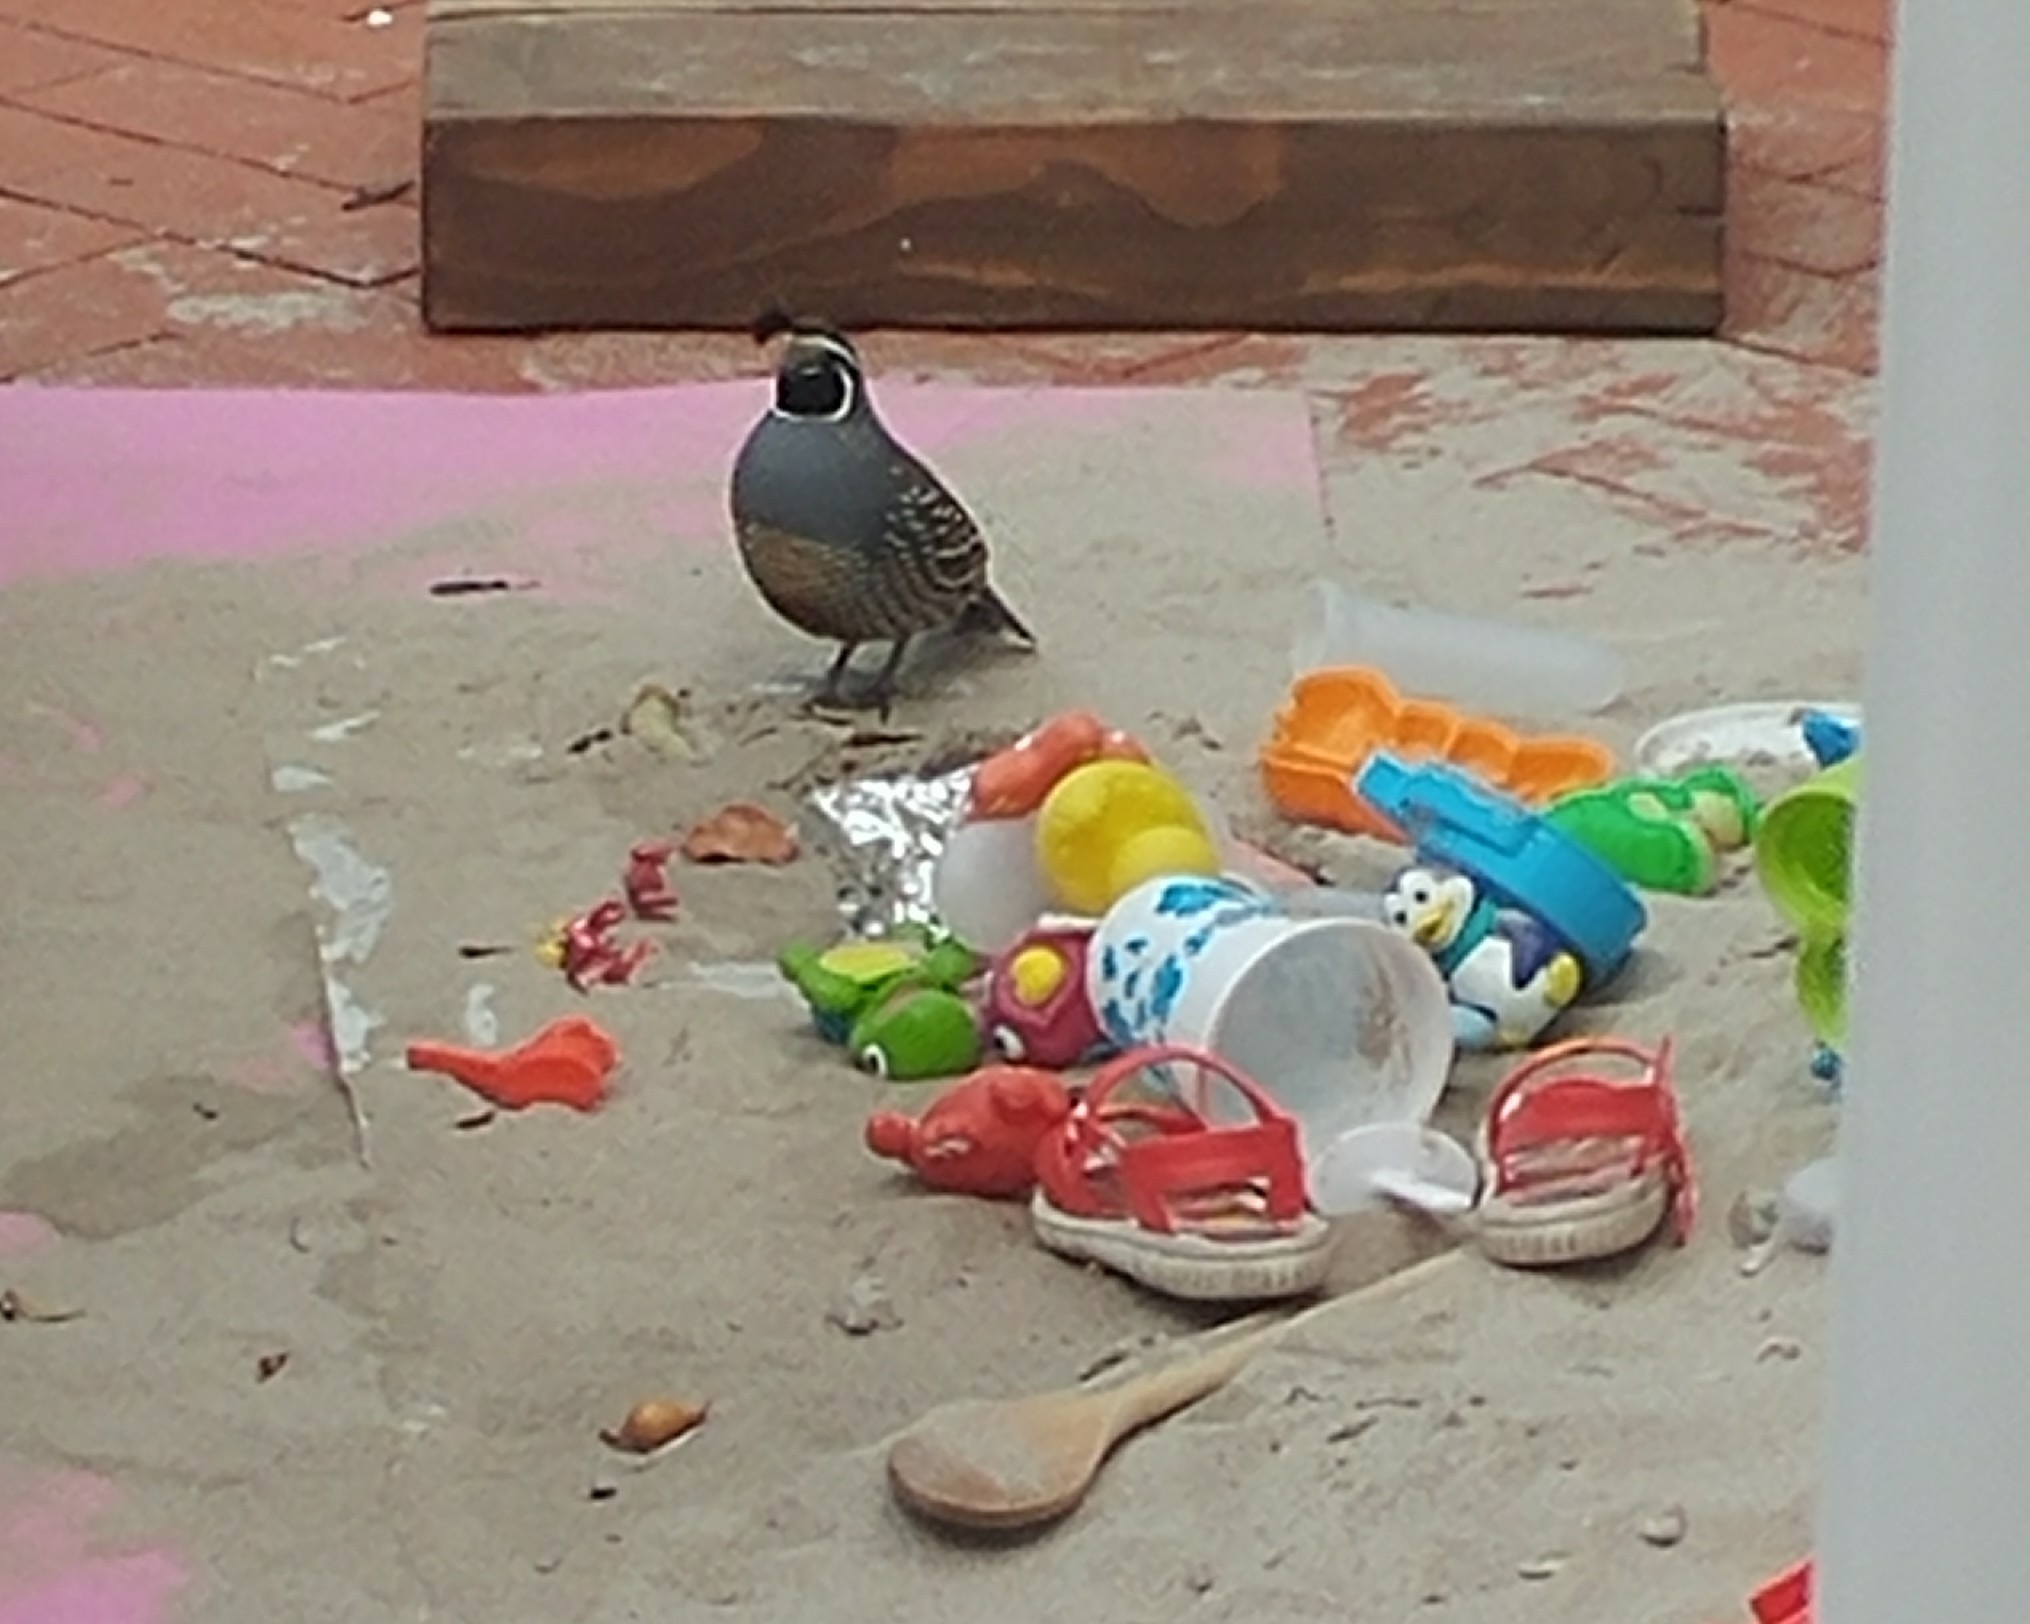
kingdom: Animalia
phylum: Chordata
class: Aves
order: Galliformes
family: Odontophoridae
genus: Callipepla
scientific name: Callipepla californica
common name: California quail
